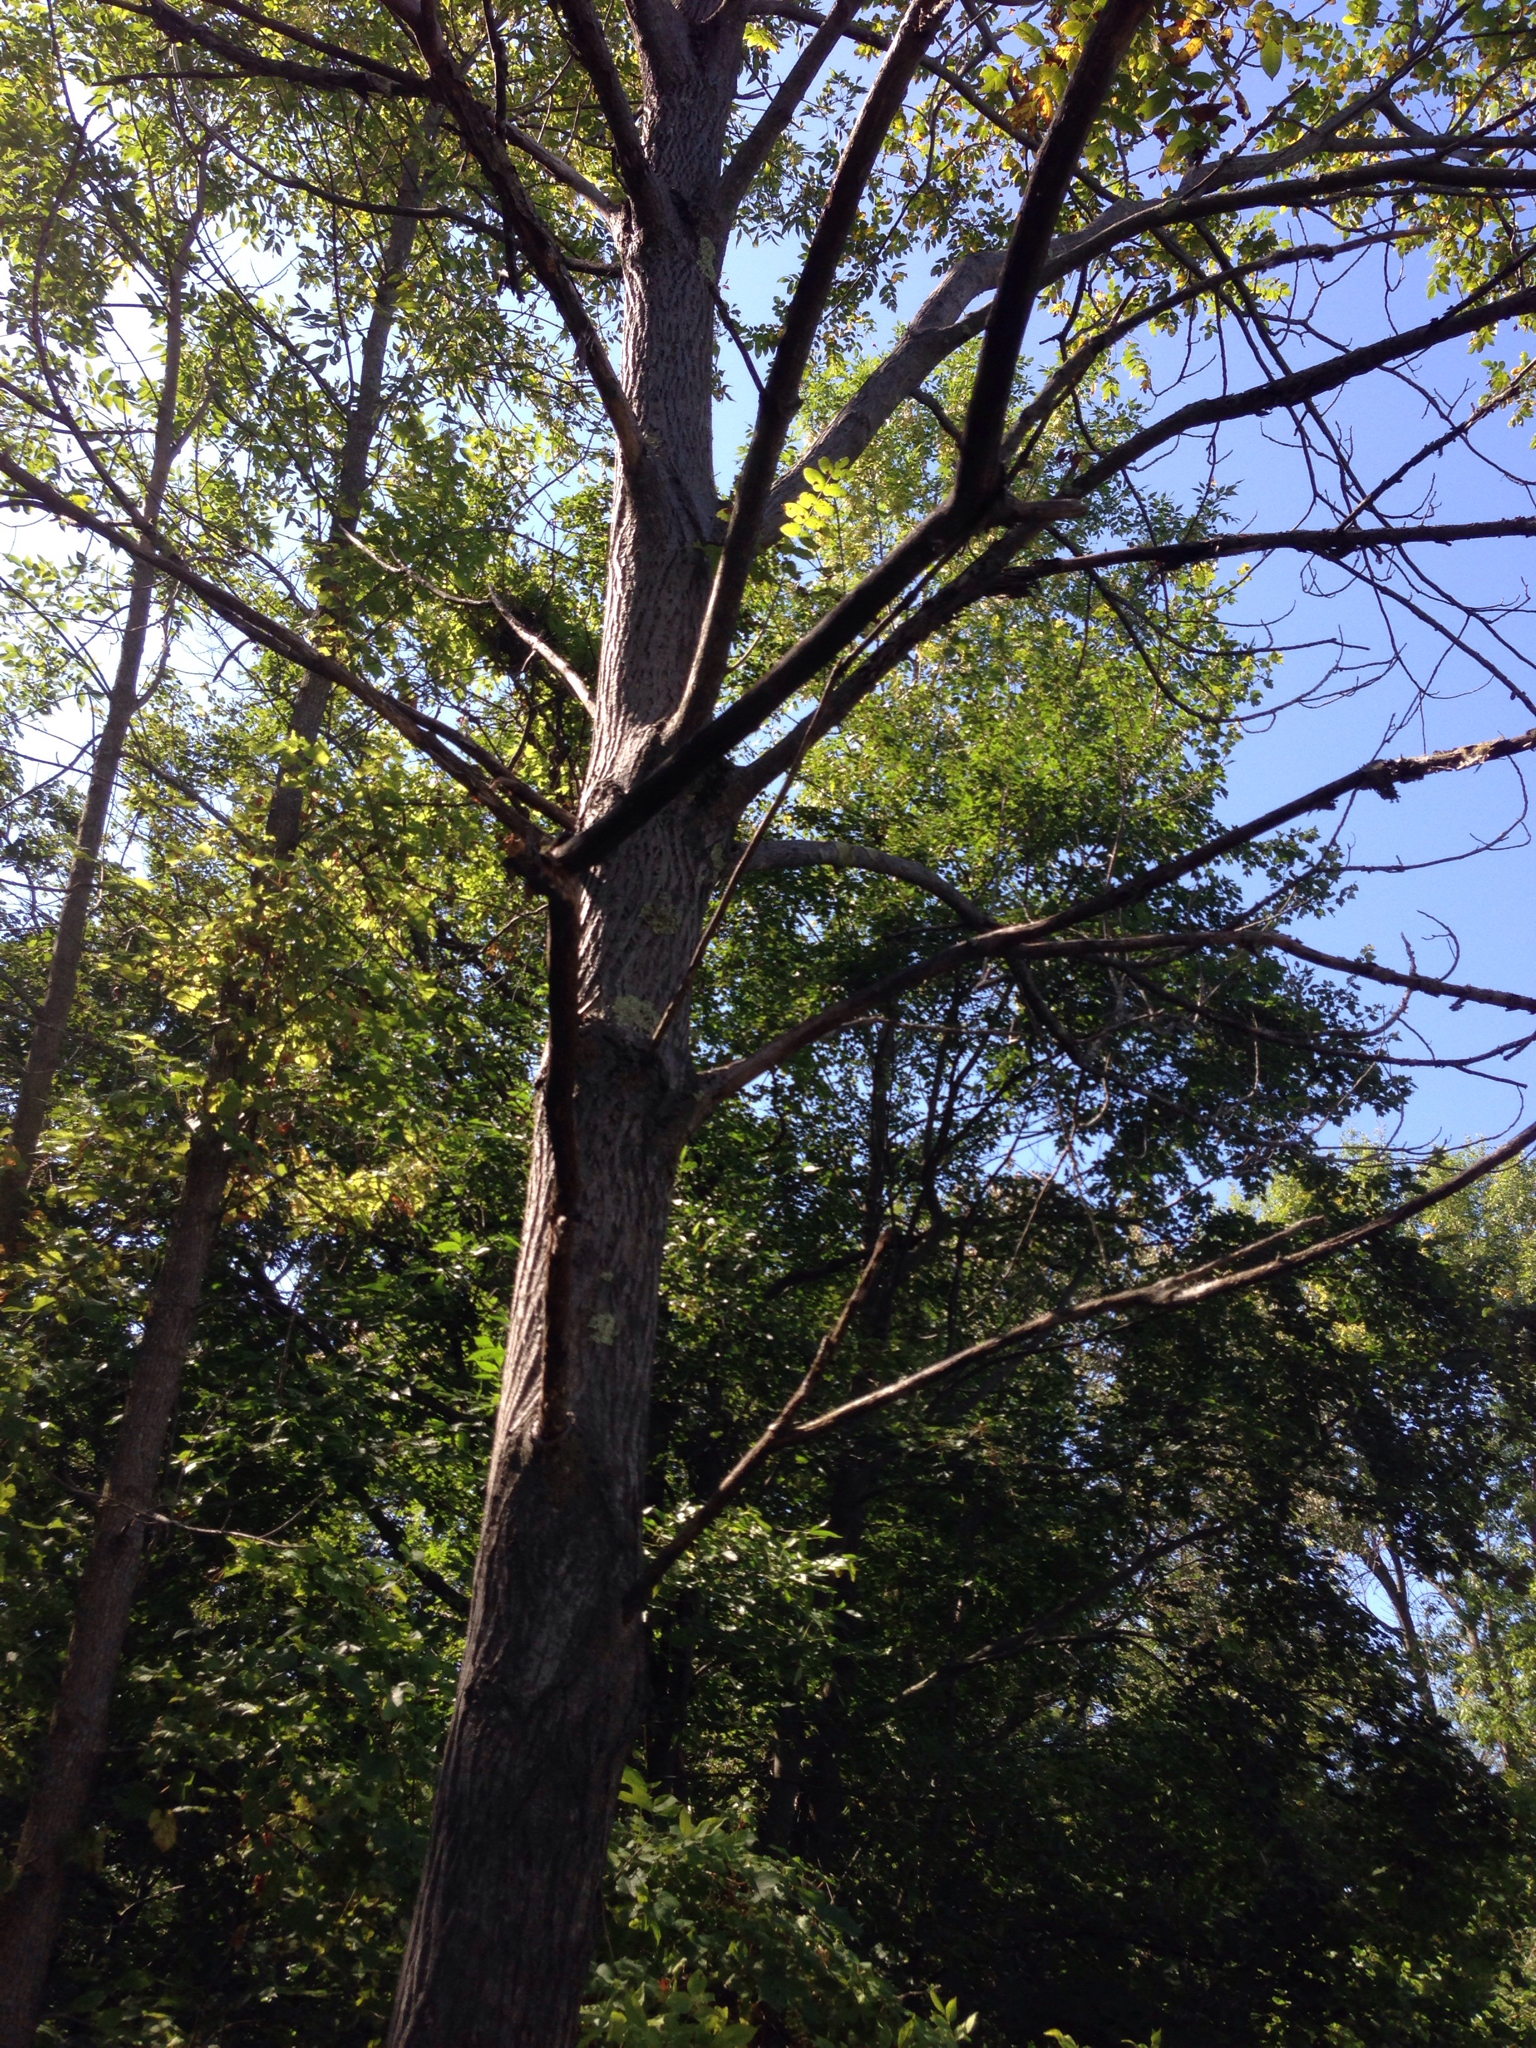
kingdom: Plantae
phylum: Tracheophyta
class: Magnoliopsida
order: Fagales
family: Juglandaceae
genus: Juglans
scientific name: Juglans cinerea
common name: Butternut
